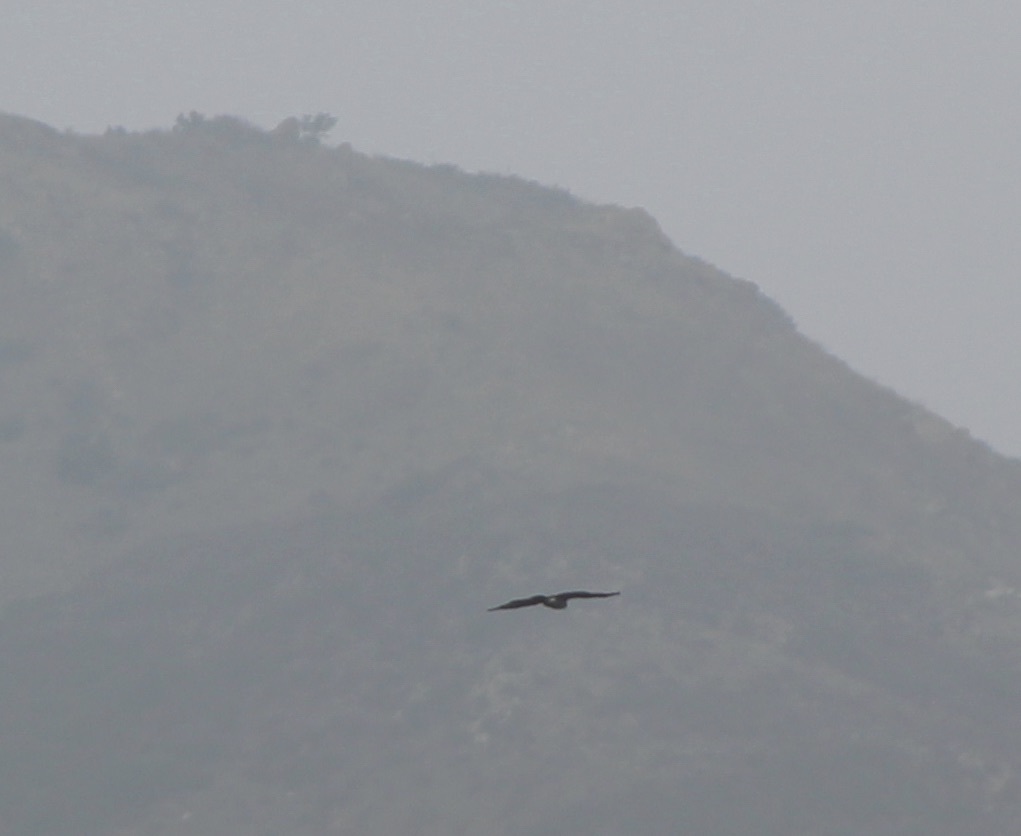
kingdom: Animalia
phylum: Chordata
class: Aves
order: Accipitriformes
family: Accipitridae
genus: Accipiter
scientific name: Accipiter cooperii
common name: Cooper's hawk
